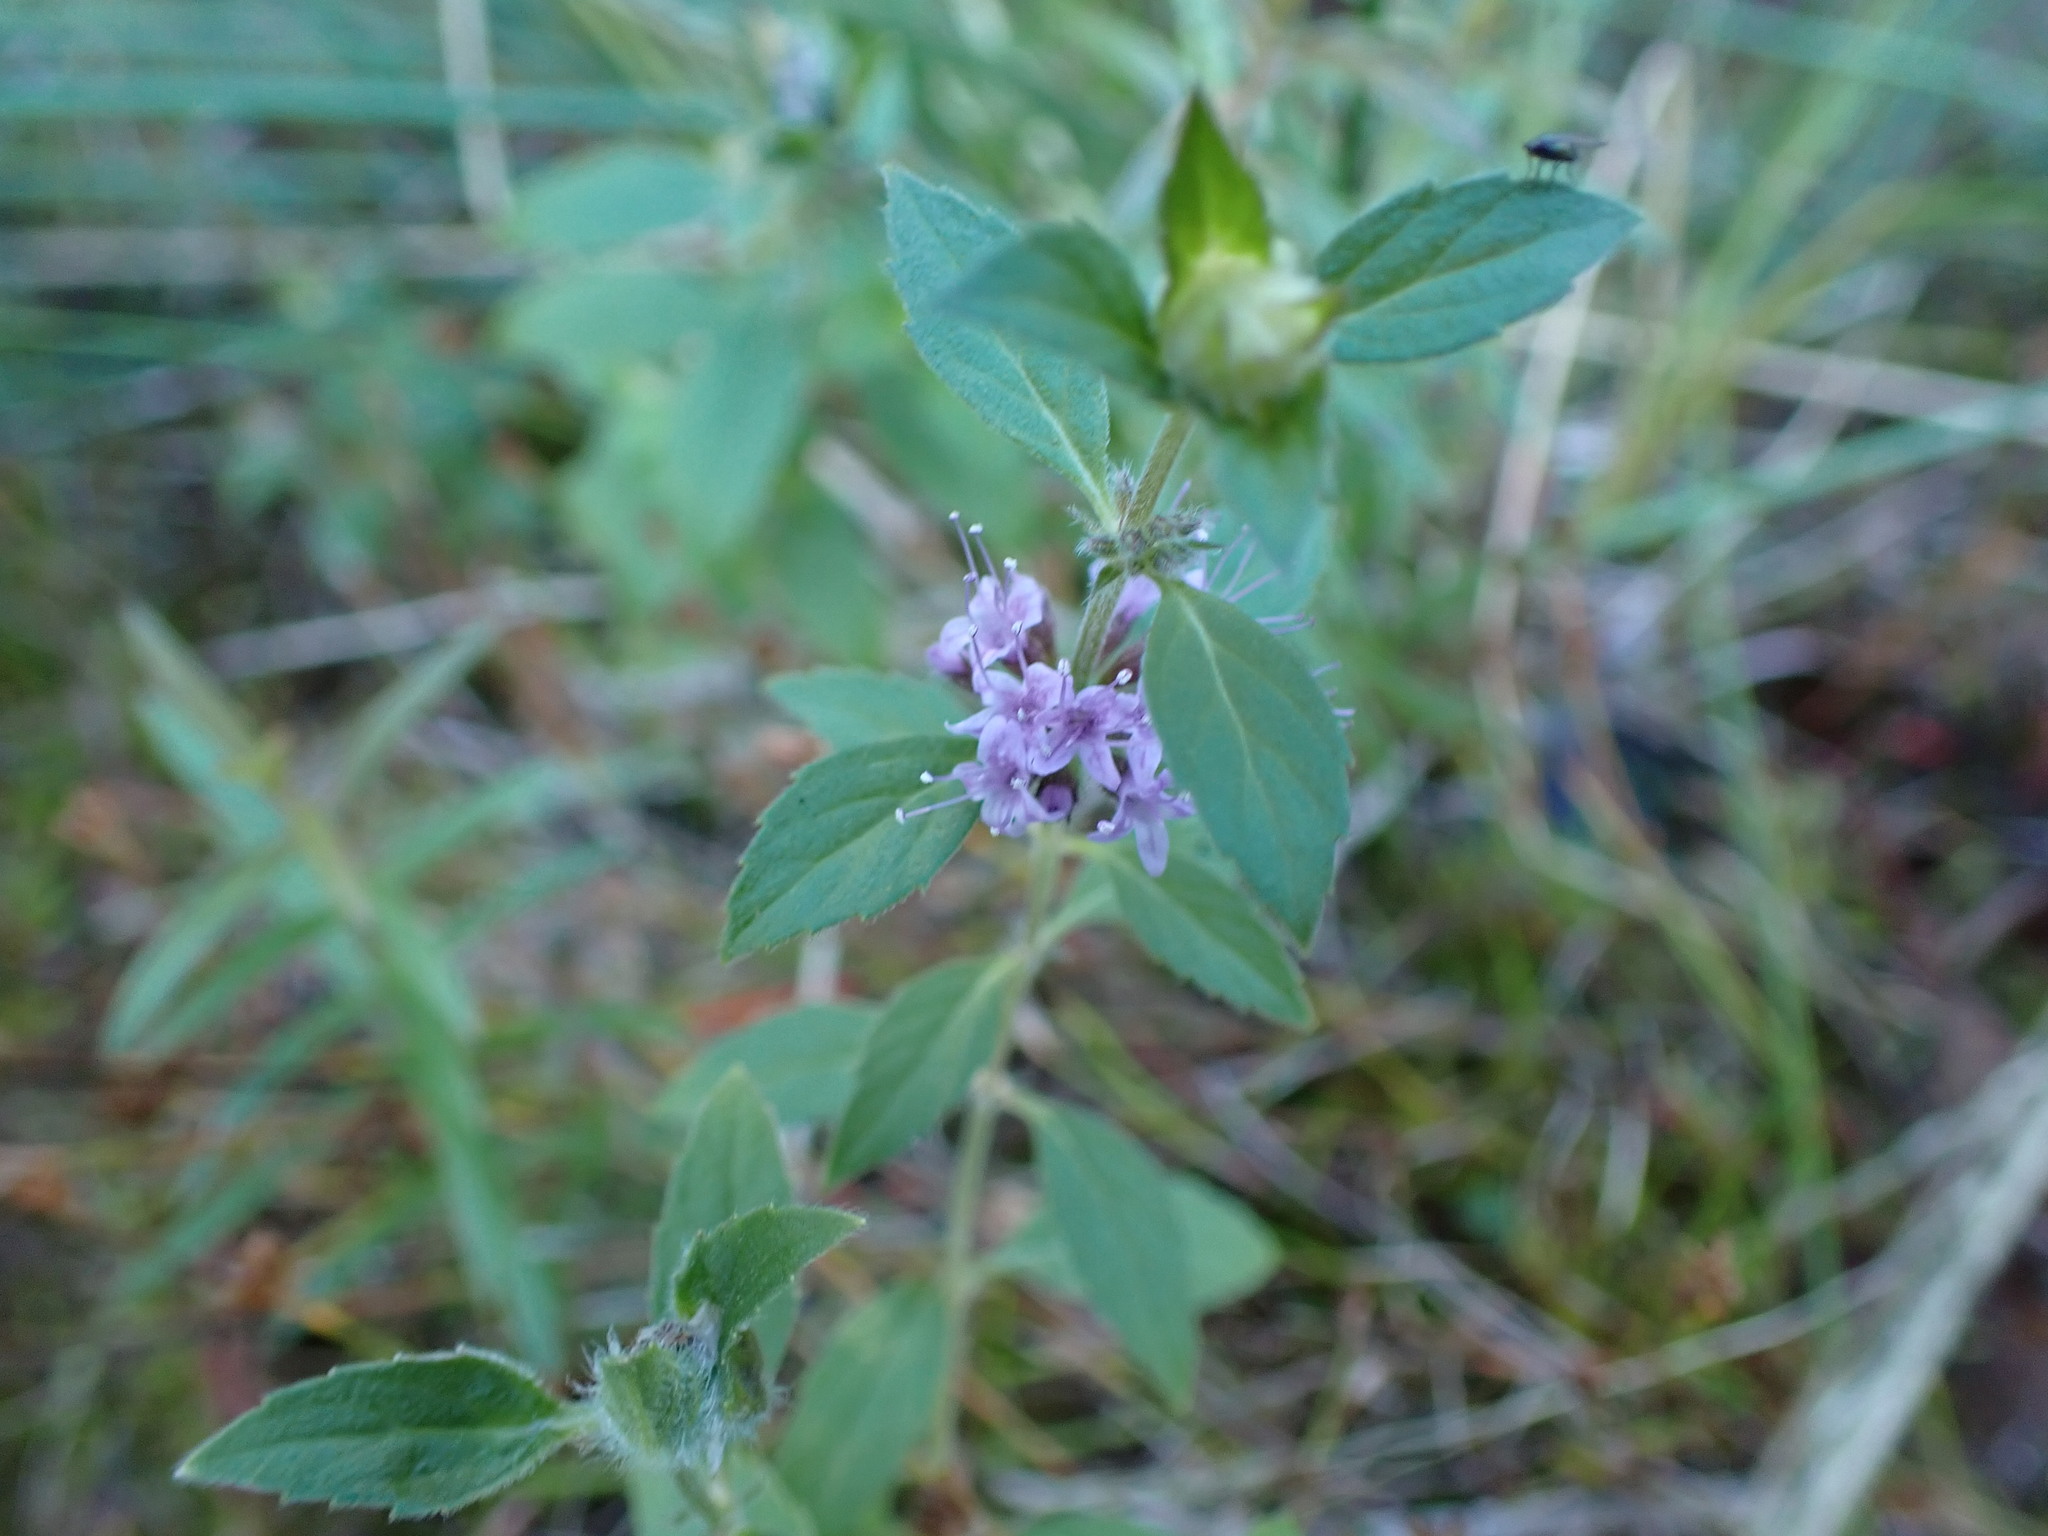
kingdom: Plantae
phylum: Tracheophyta
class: Magnoliopsida
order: Lamiales
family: Lamiaceae
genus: Mentha
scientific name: Mentha canadensis
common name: American corn mint
